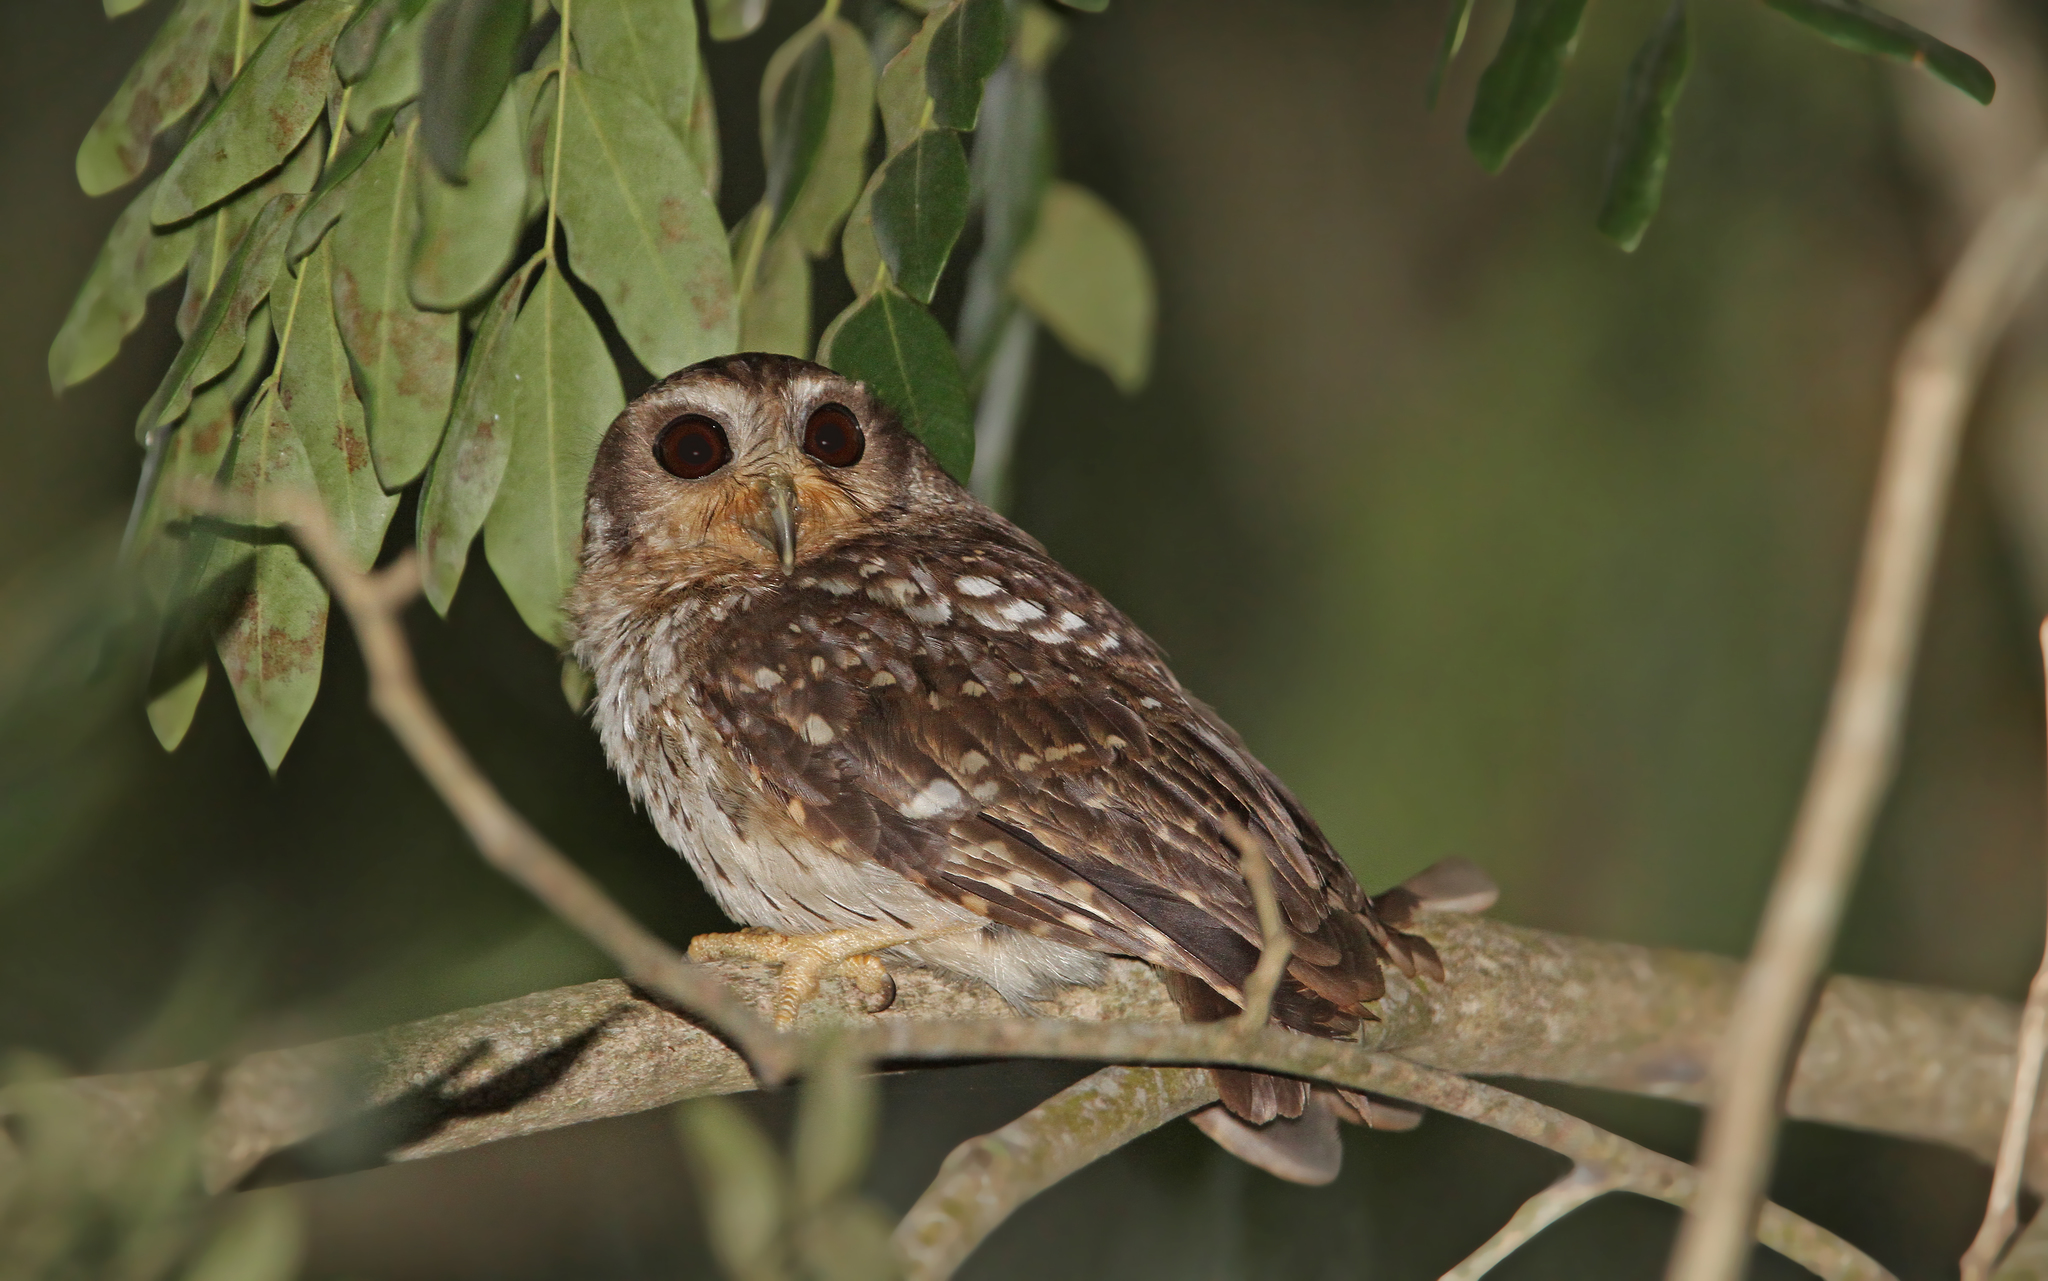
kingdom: Animalia
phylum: Chordata
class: Aves
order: Strigiformes
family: Strigidae
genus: Margarobyas
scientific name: Margarobyas lawrencii
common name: Bare-legged owl
